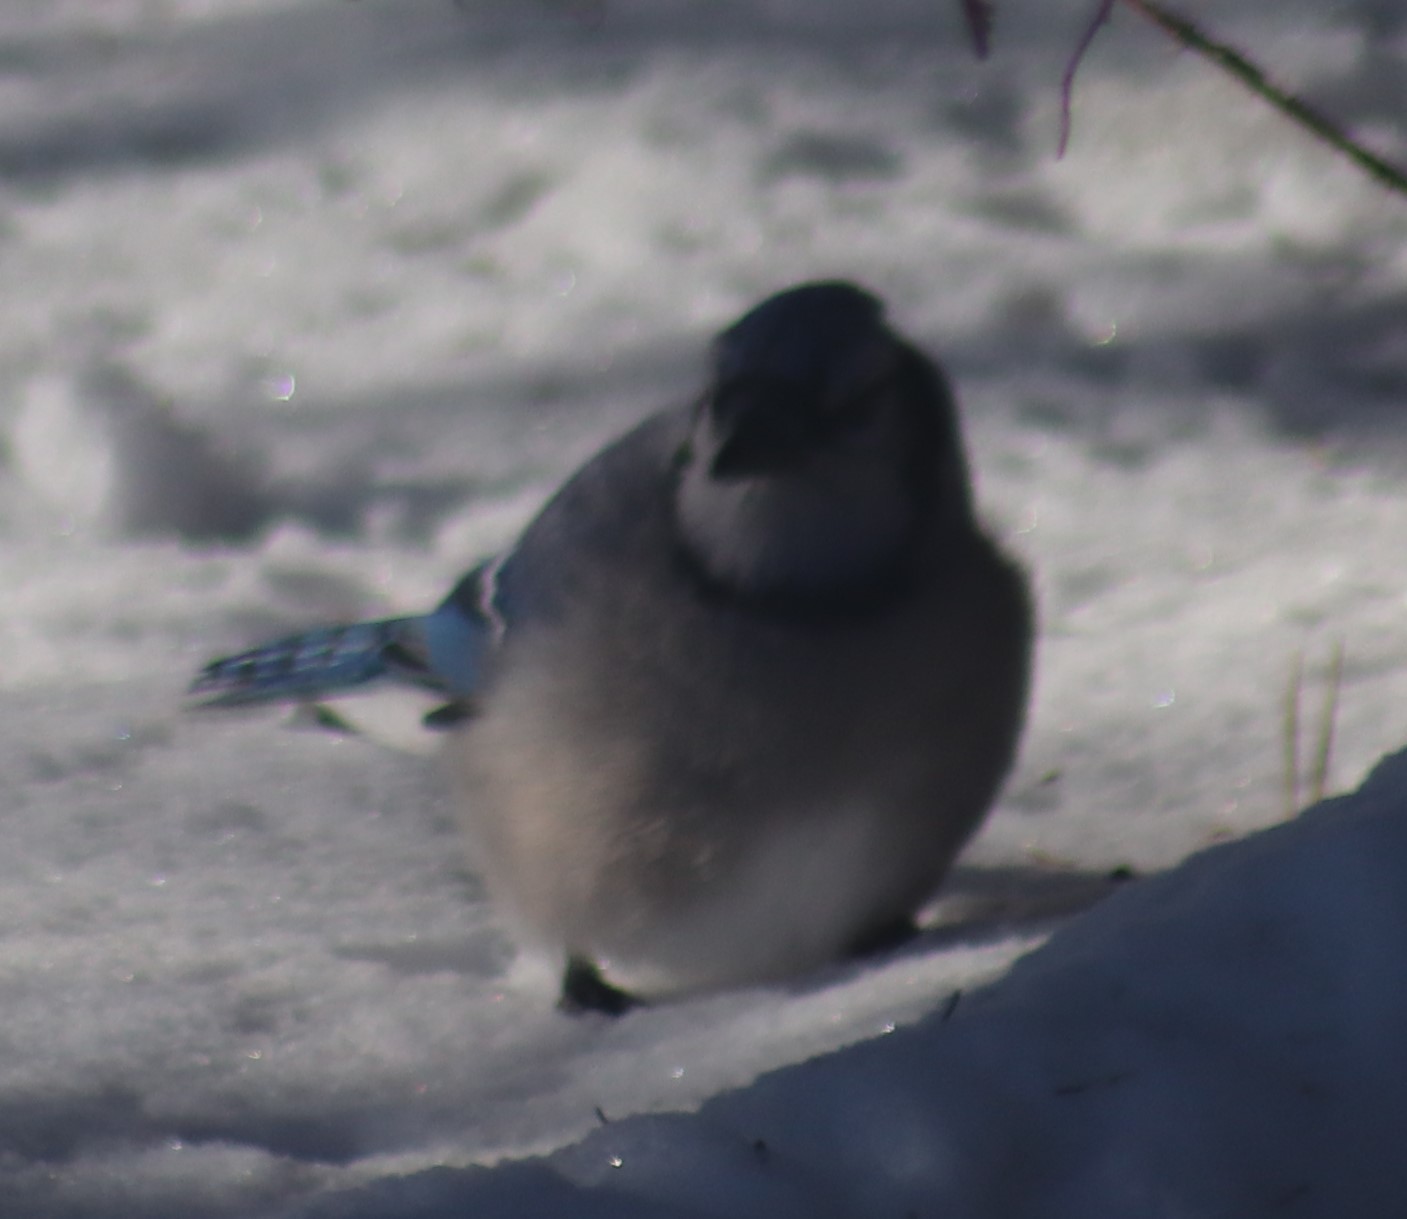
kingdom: Animalia
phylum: Chordata
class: Aves
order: Passeriformes
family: Corvidae
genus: Cyanocitta
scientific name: Cyanocitta cristata
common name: Blue jay
